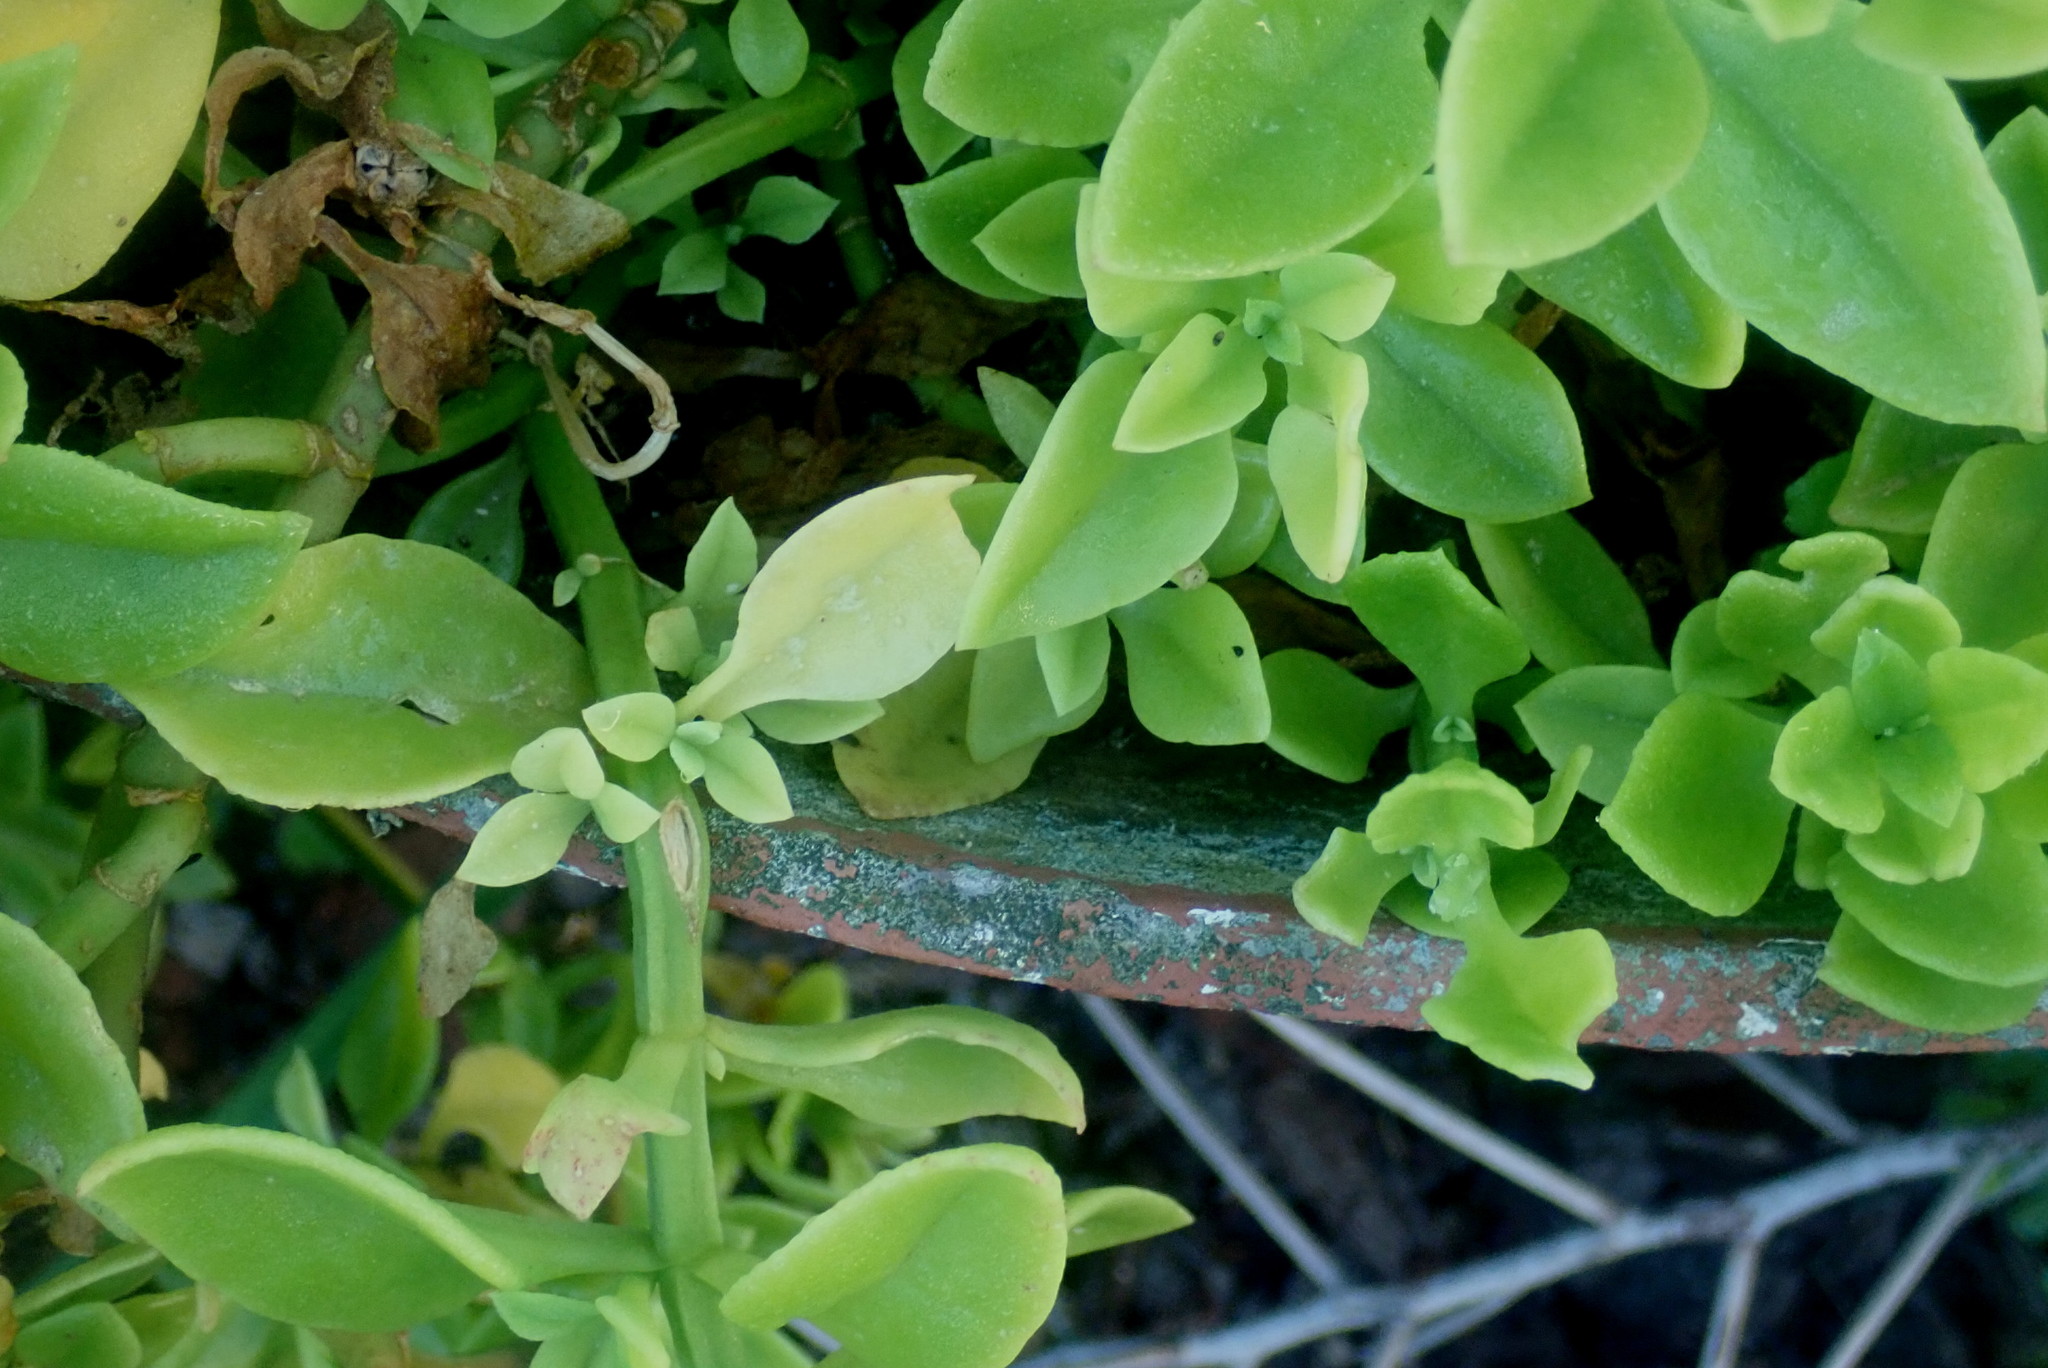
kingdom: Plantae
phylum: Tracheophyta
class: Magnoliopsida
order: Caryophyllales
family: Aizoaceae
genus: Mesembryanthemum
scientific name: Mesembryanthemum cordifolium
